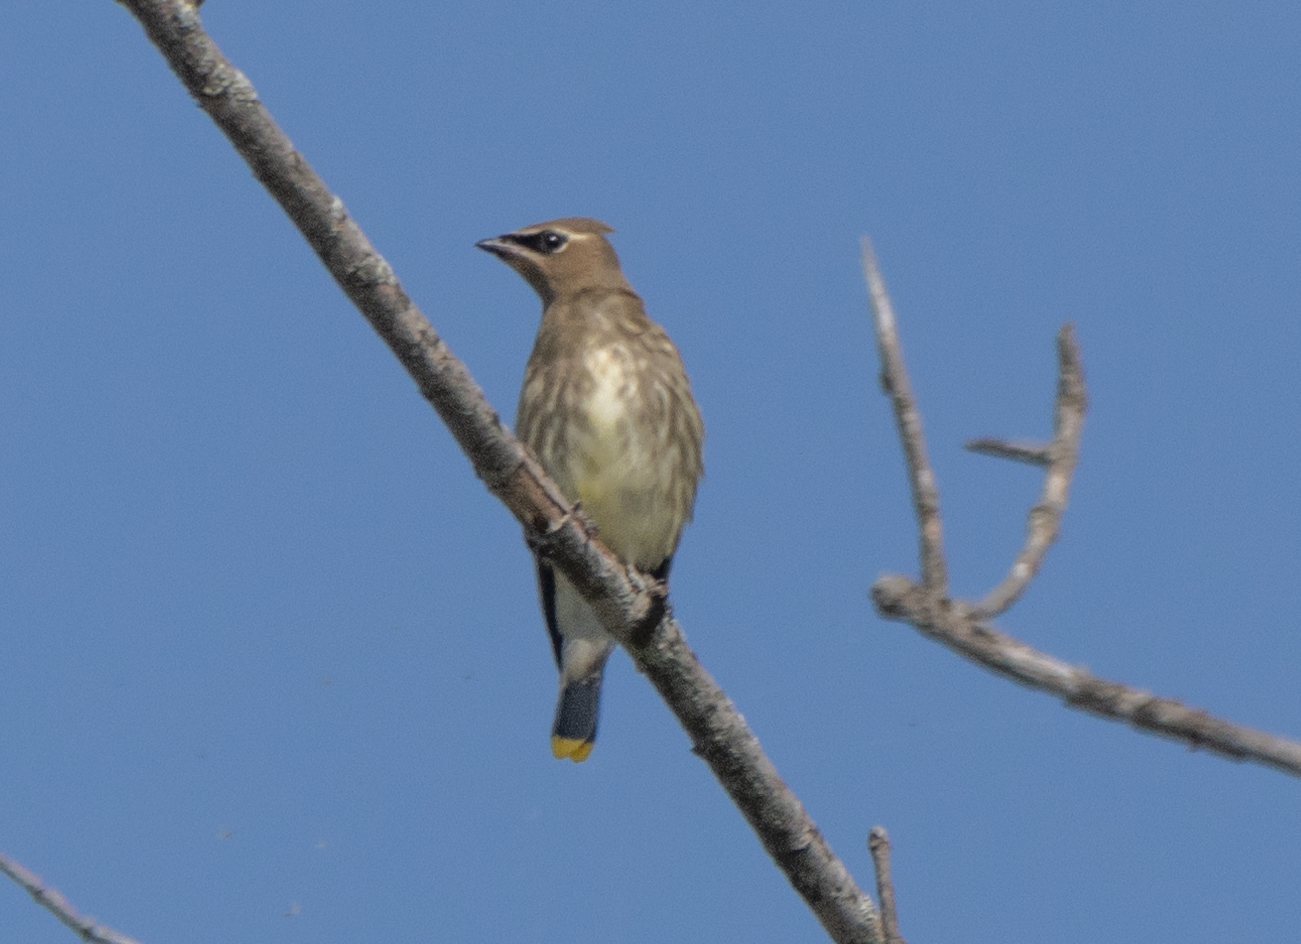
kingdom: Animalia
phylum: Chordata
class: Aves
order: Passeriformes
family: Bombycillidae
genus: Bombycilla
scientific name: Bombycilla cedrorum
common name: Cedar waxwing
